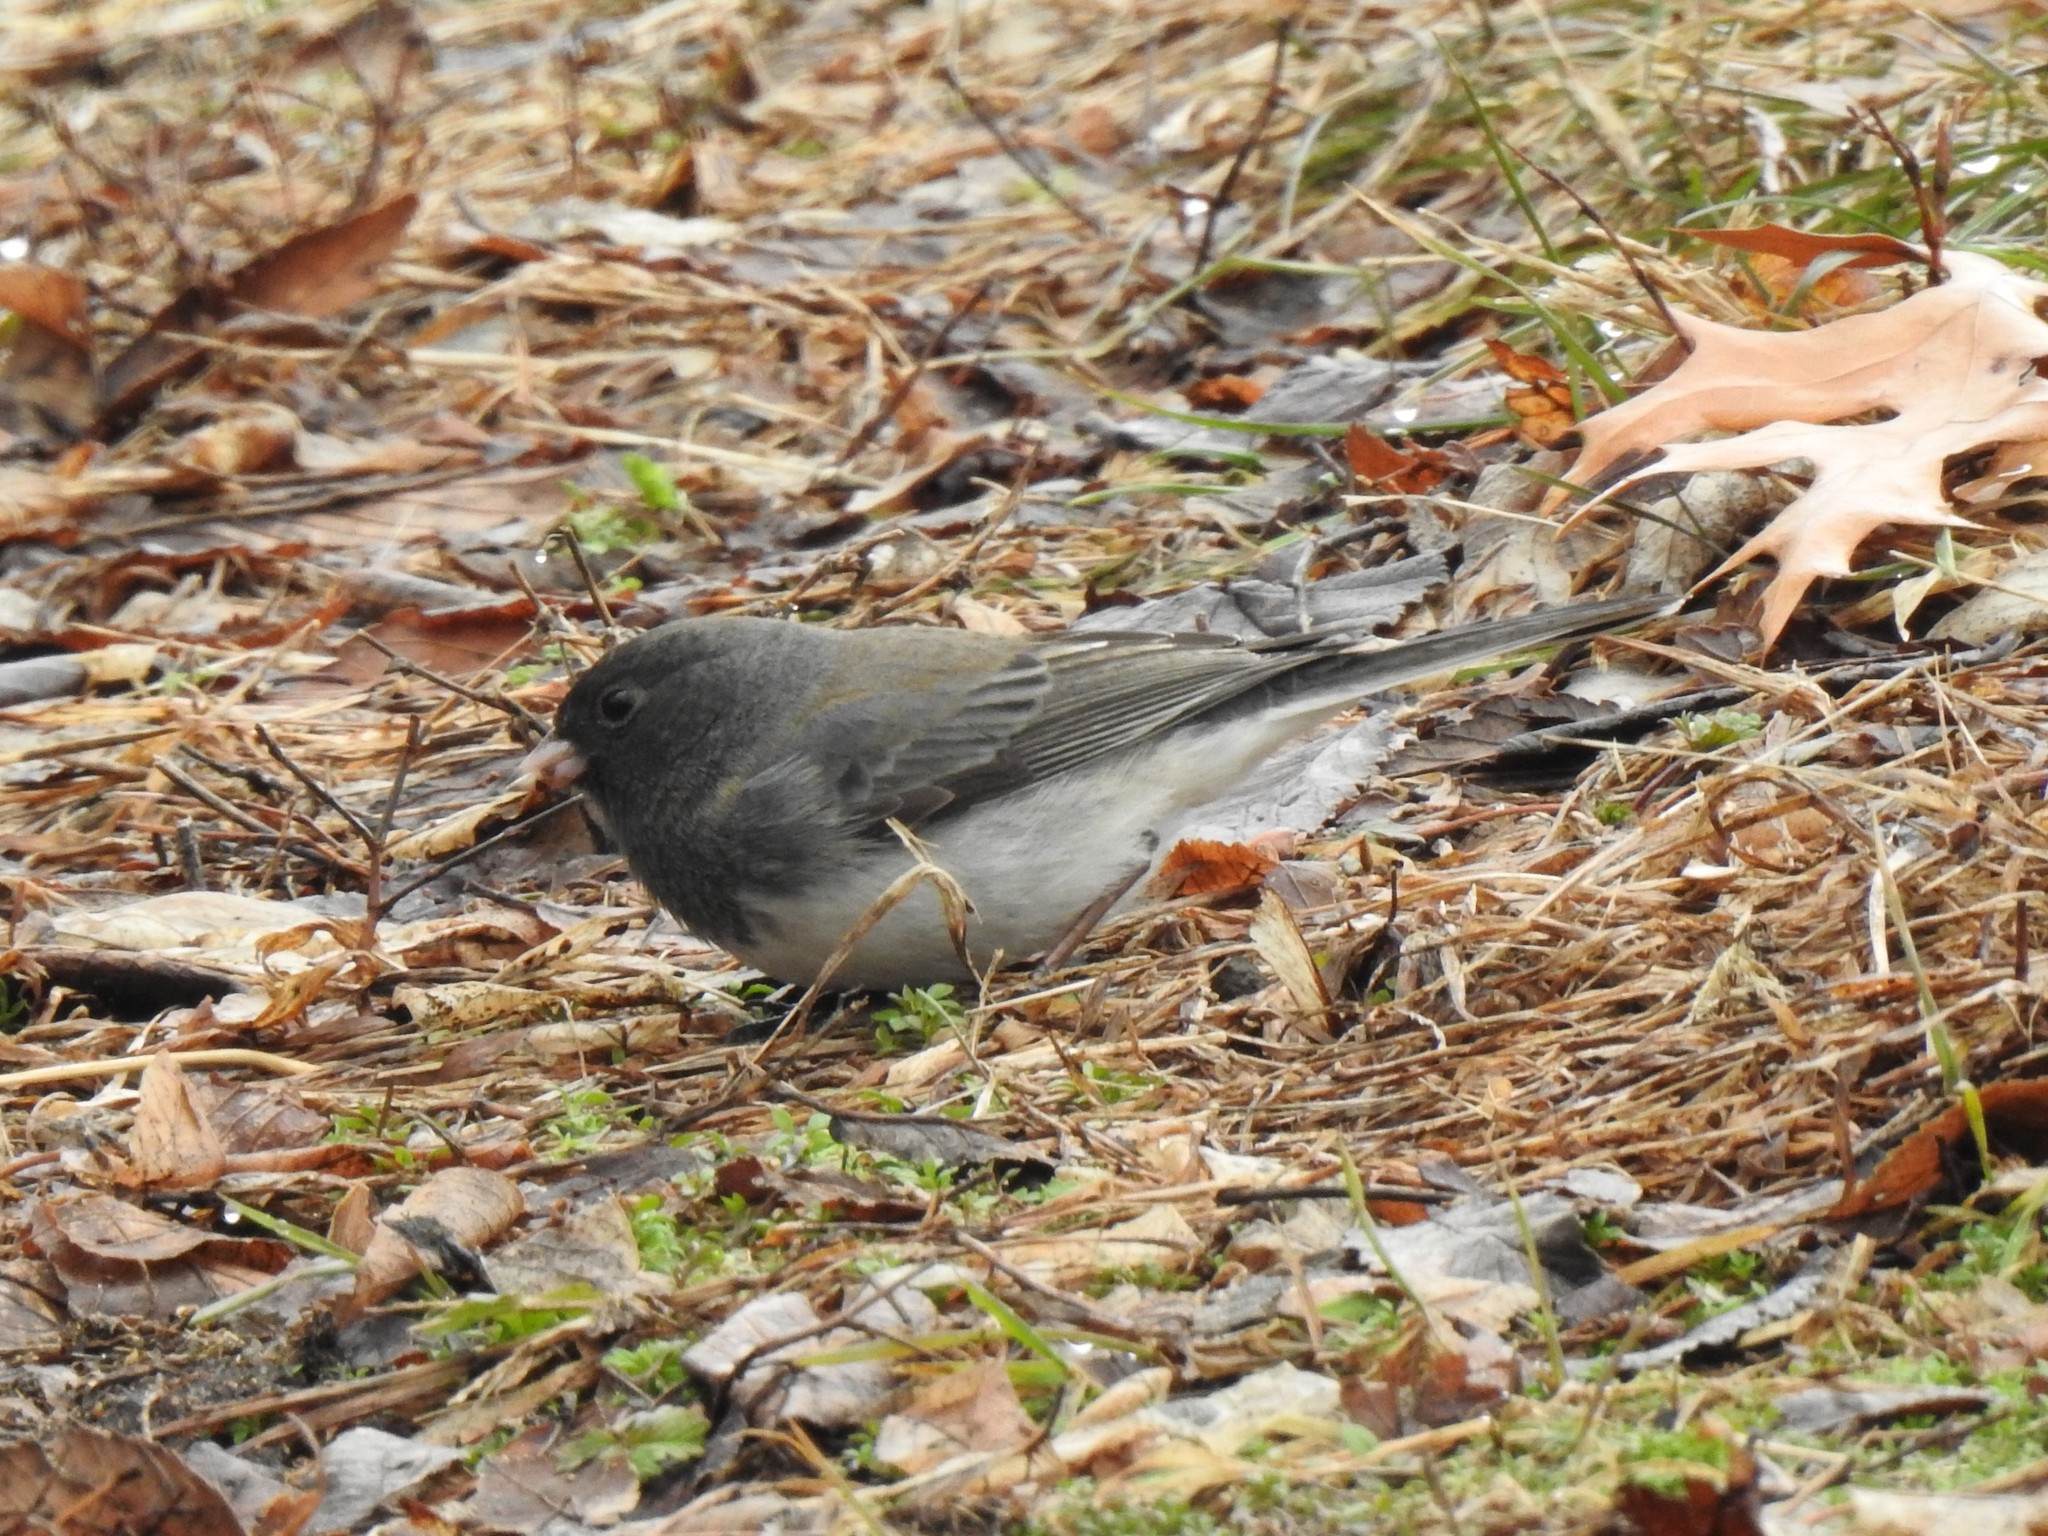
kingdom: Animalia
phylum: Chordata
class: Aves
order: Passeriformes
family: Passerellidae
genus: Junco
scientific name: Junco hyemalis
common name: Dark-eyed junco
